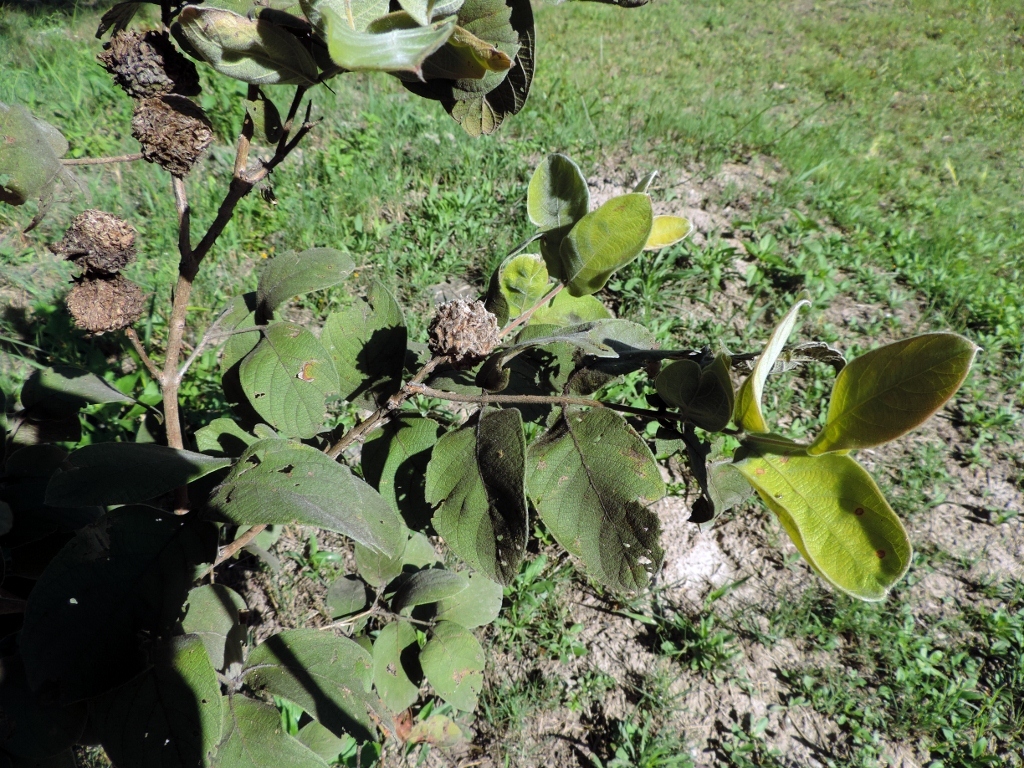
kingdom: Plantae
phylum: Tracheophyta
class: Magnoliopsida
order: Myrtales
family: Combretaceae
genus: Combretum
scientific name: Combretum molle
